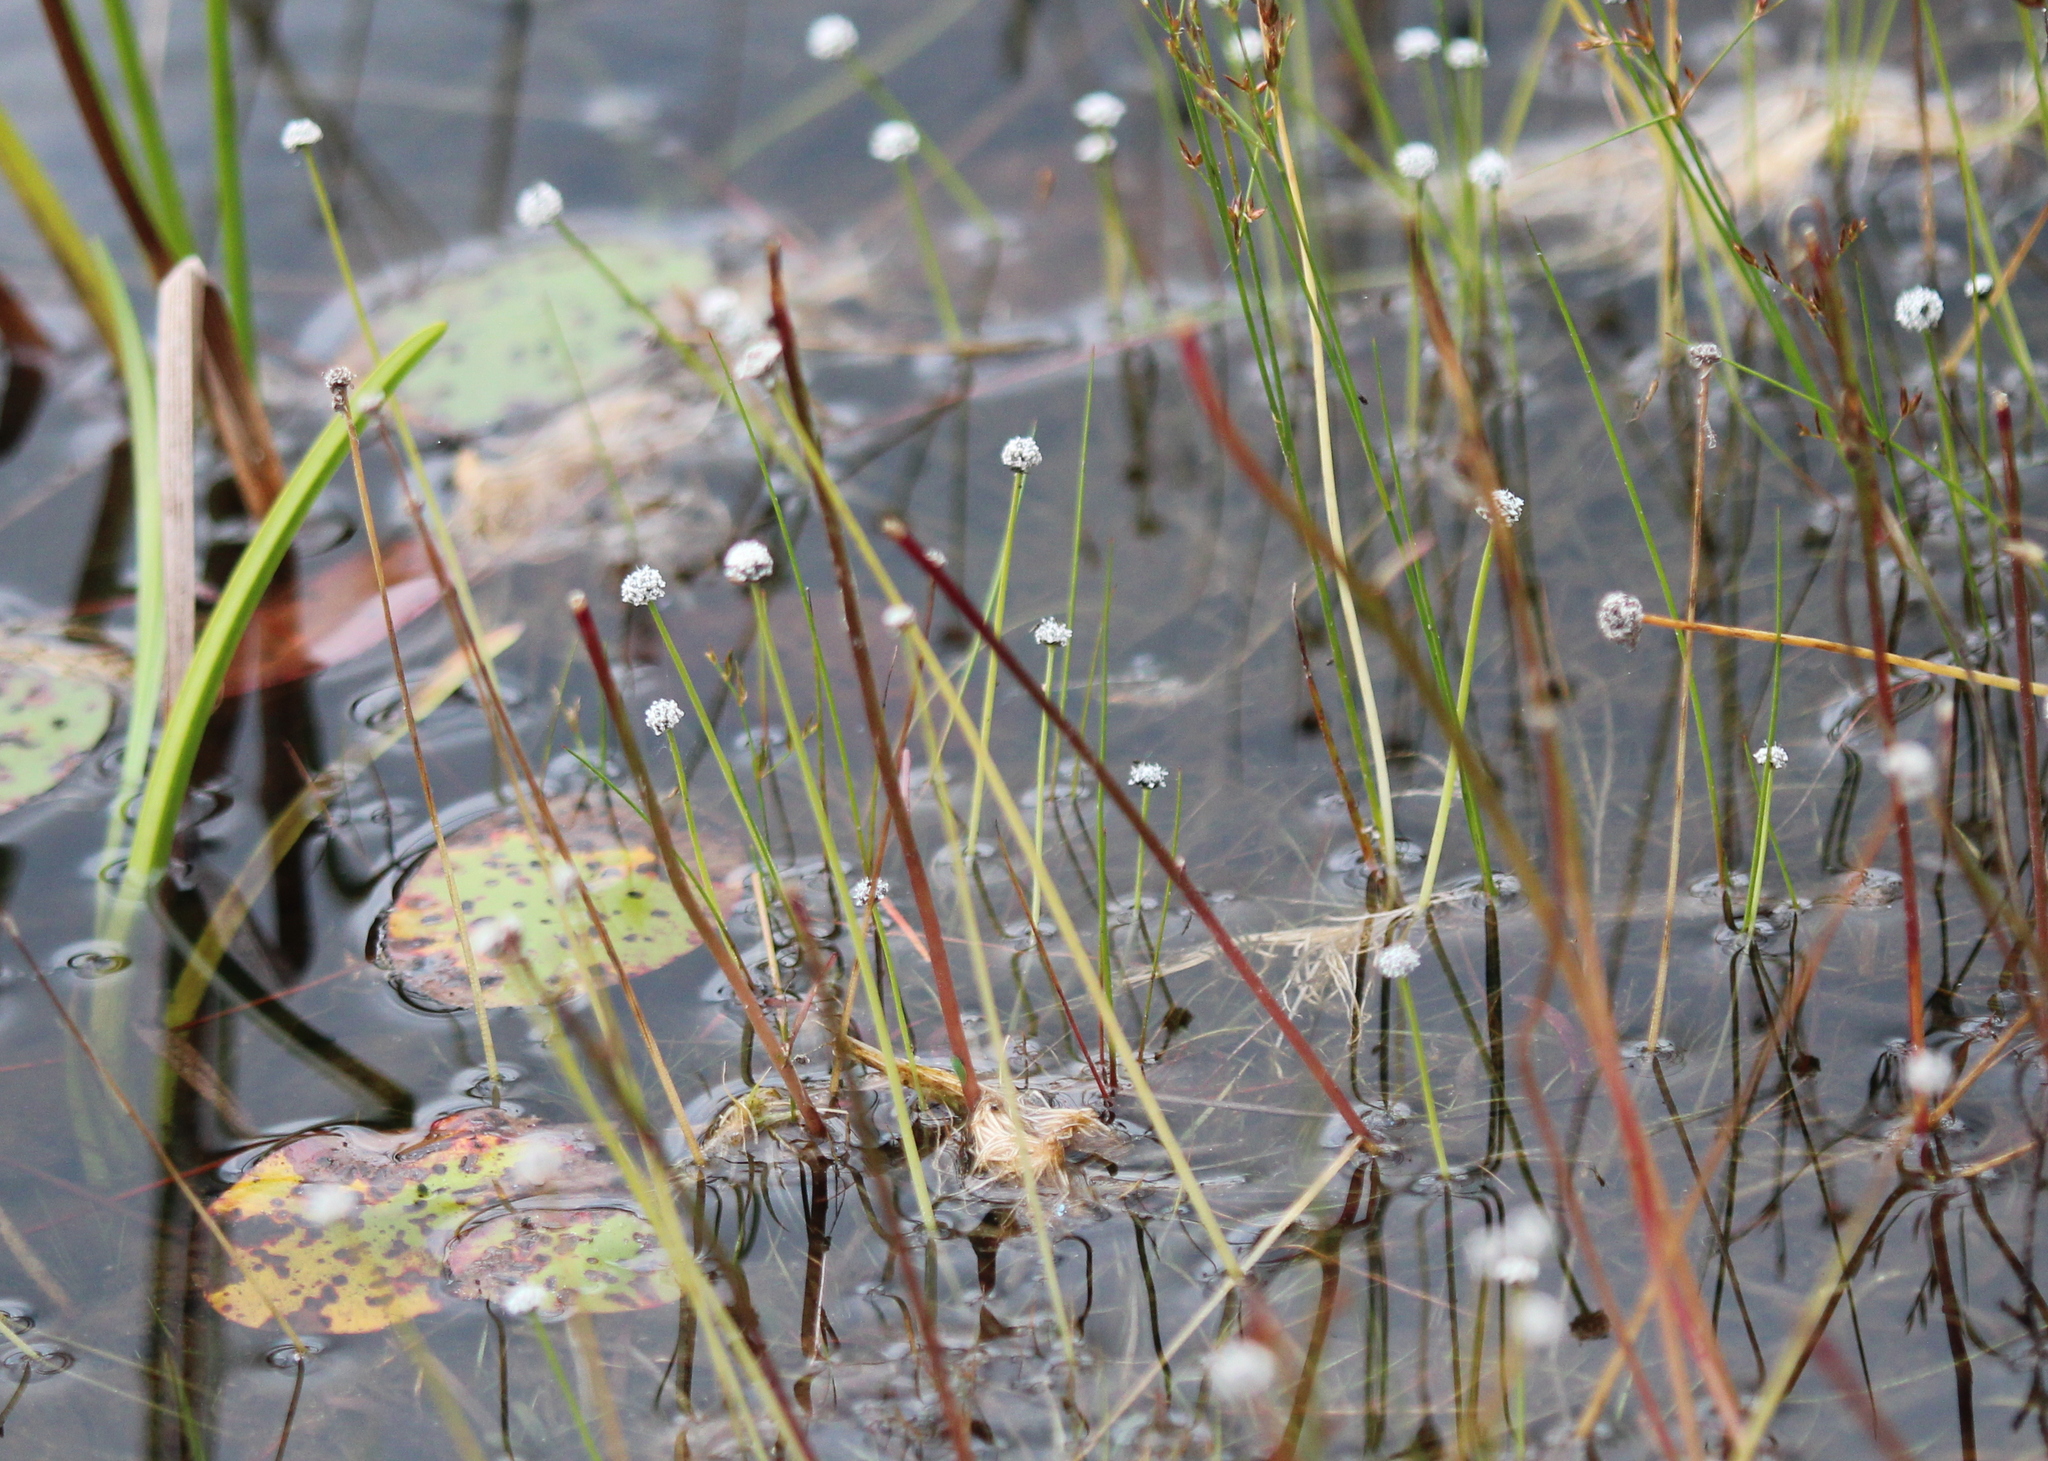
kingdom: Plantae
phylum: Tracheophyta
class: Liliopsida
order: Poales
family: Eriocaulaceae
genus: Eriocaulon
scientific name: Eriocaulon aquaticum
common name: Pipewort
